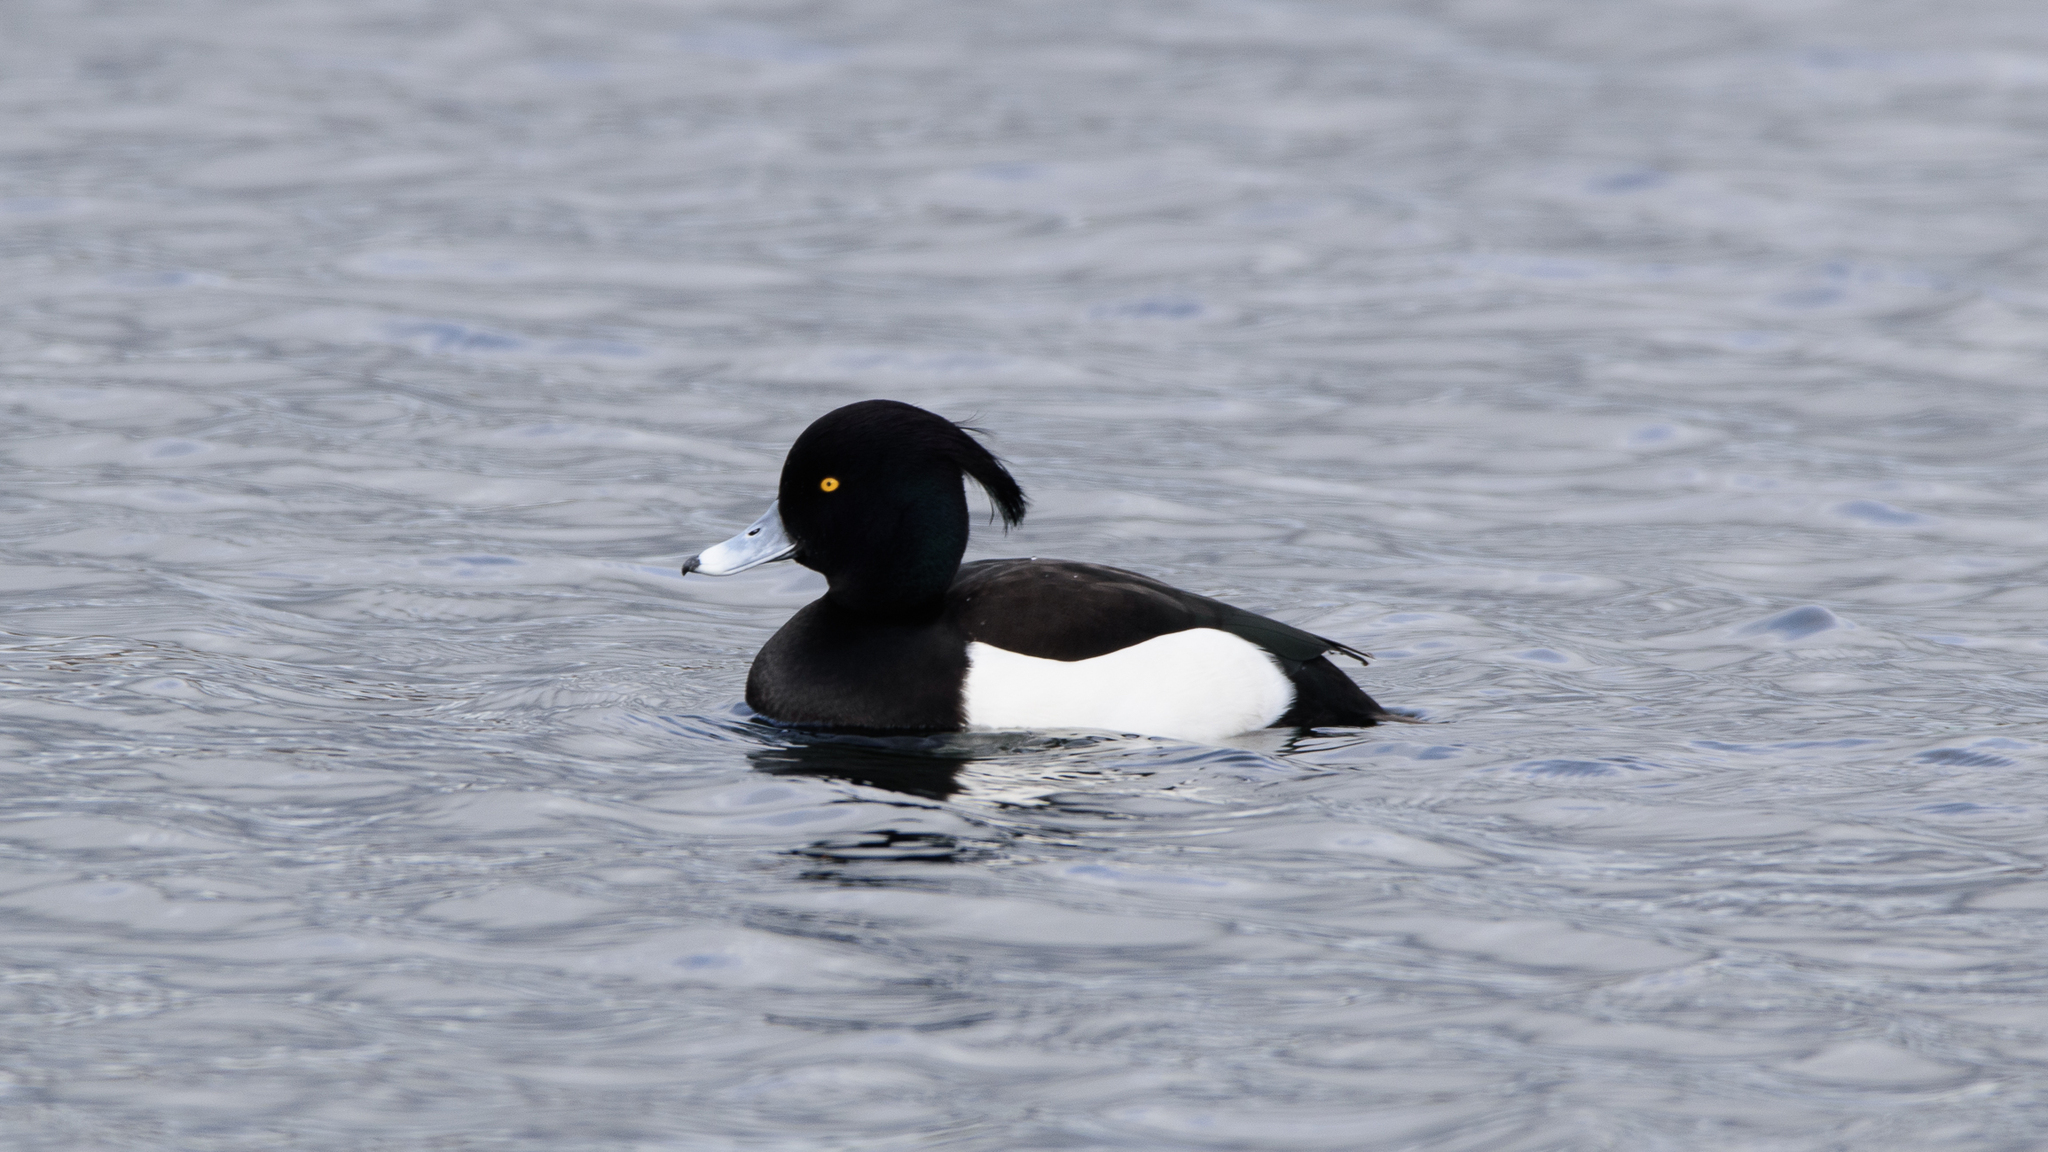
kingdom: Animalia
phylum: Chordata
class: Aves
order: Anseriformes
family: Anatidae
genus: Aythya
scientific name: Aythya fuligula
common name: Tufted duck
